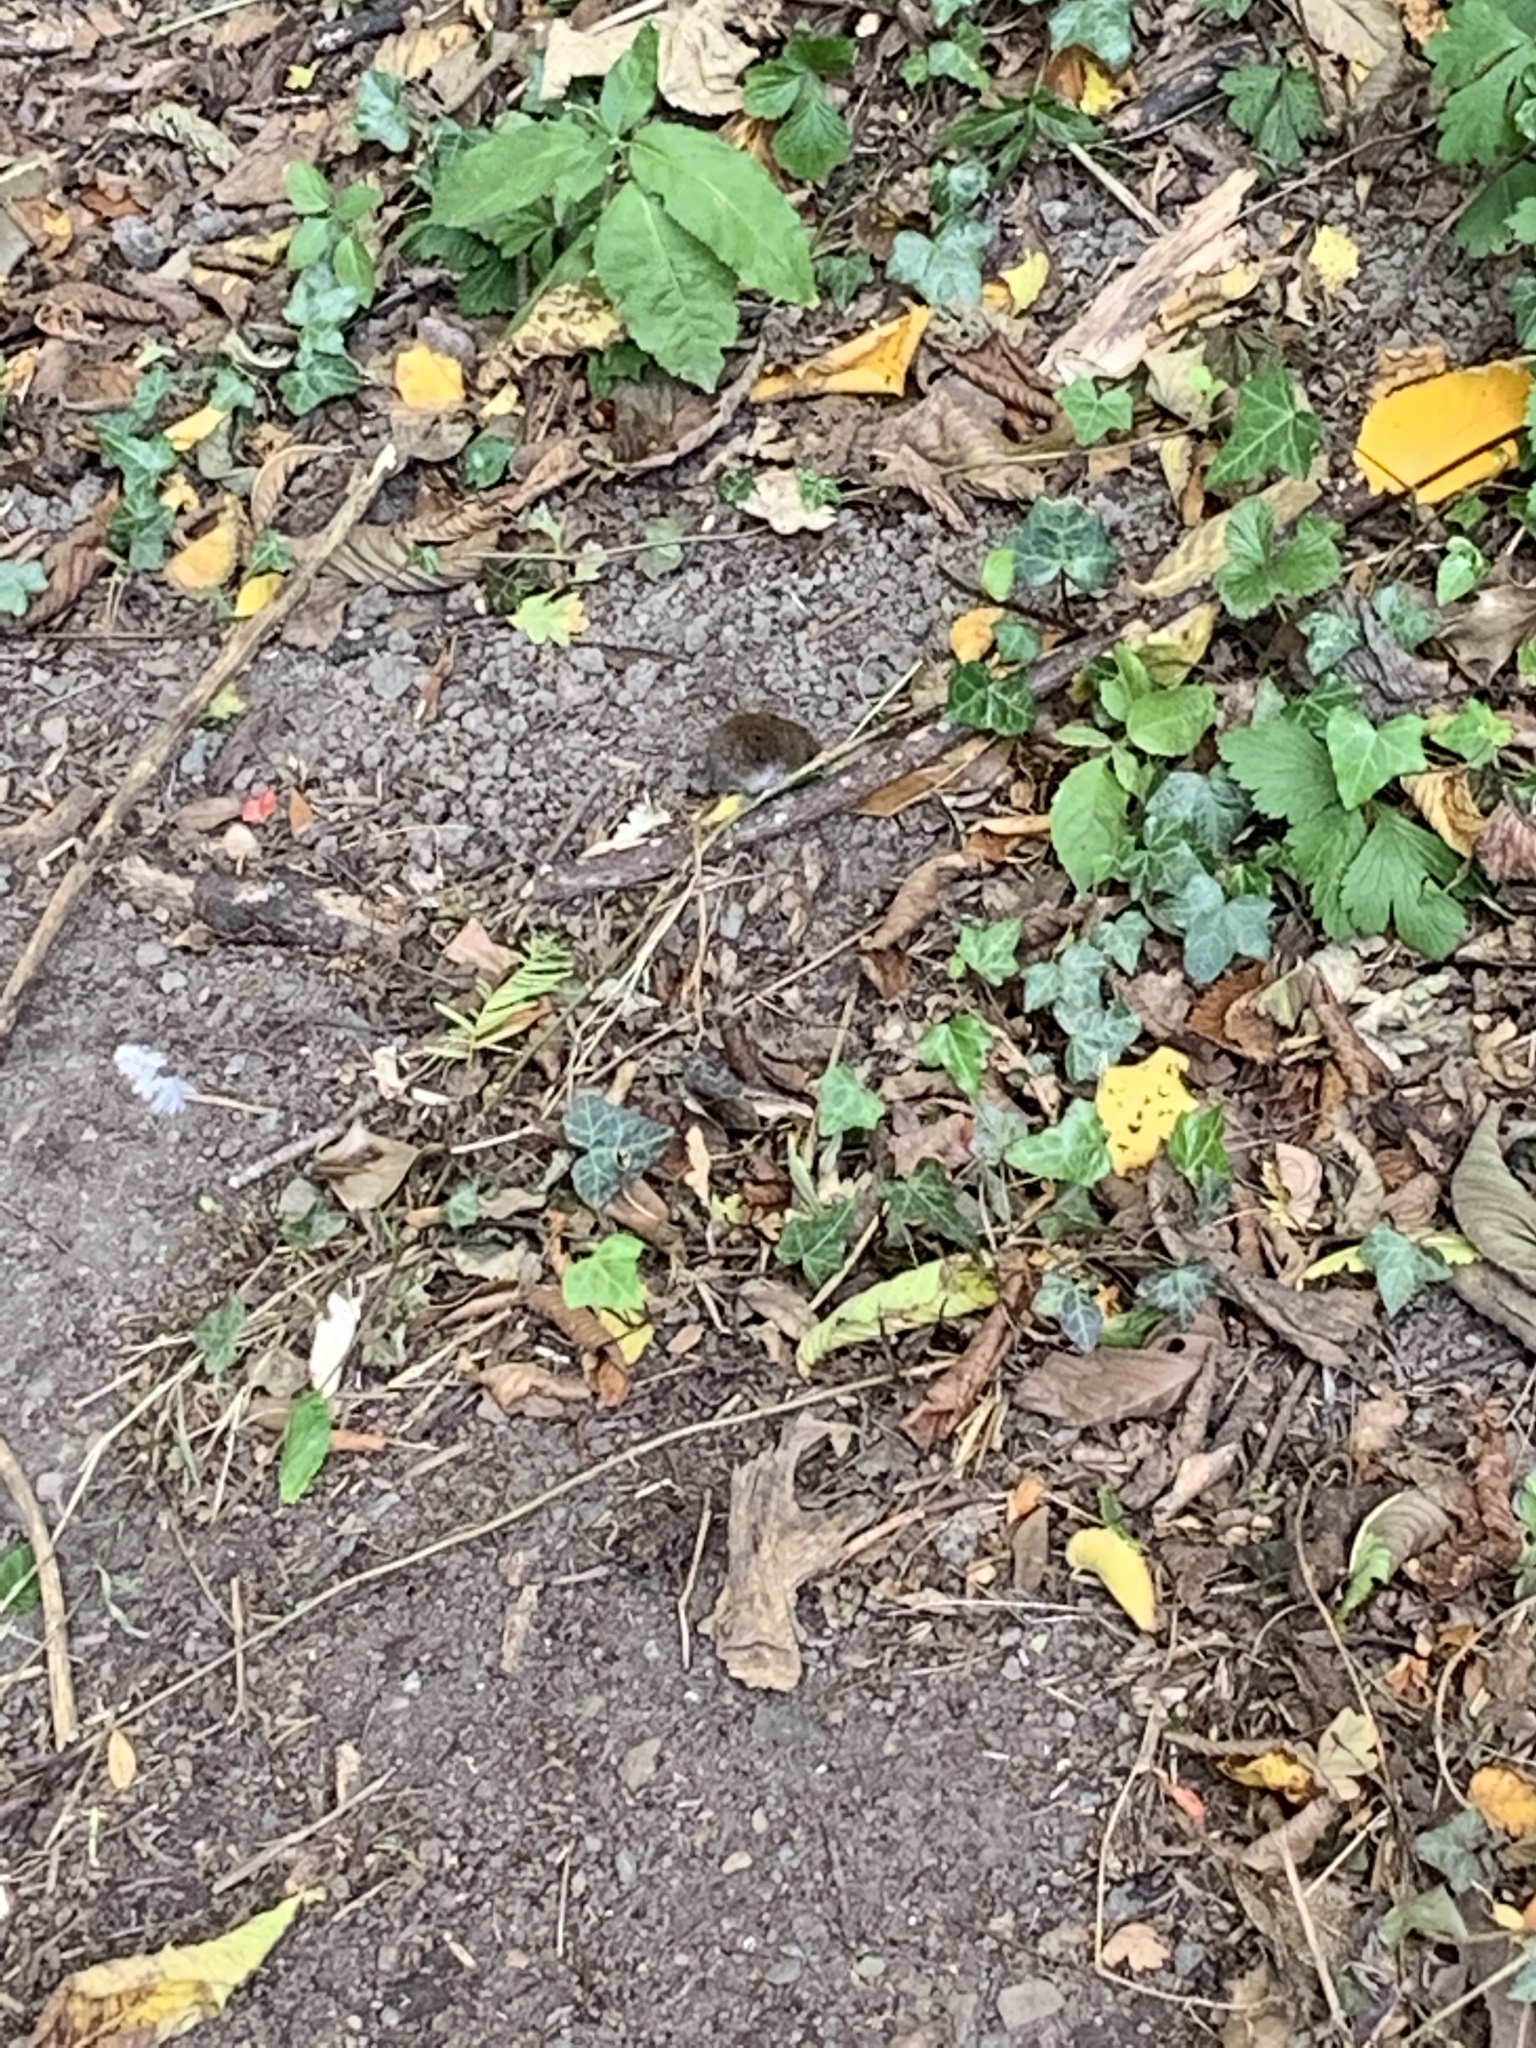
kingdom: Animalia
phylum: Chordata
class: Mammalia
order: Rodentia
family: Cricetidae
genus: Myodes
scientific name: Myodes glareolus
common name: Bank vole
